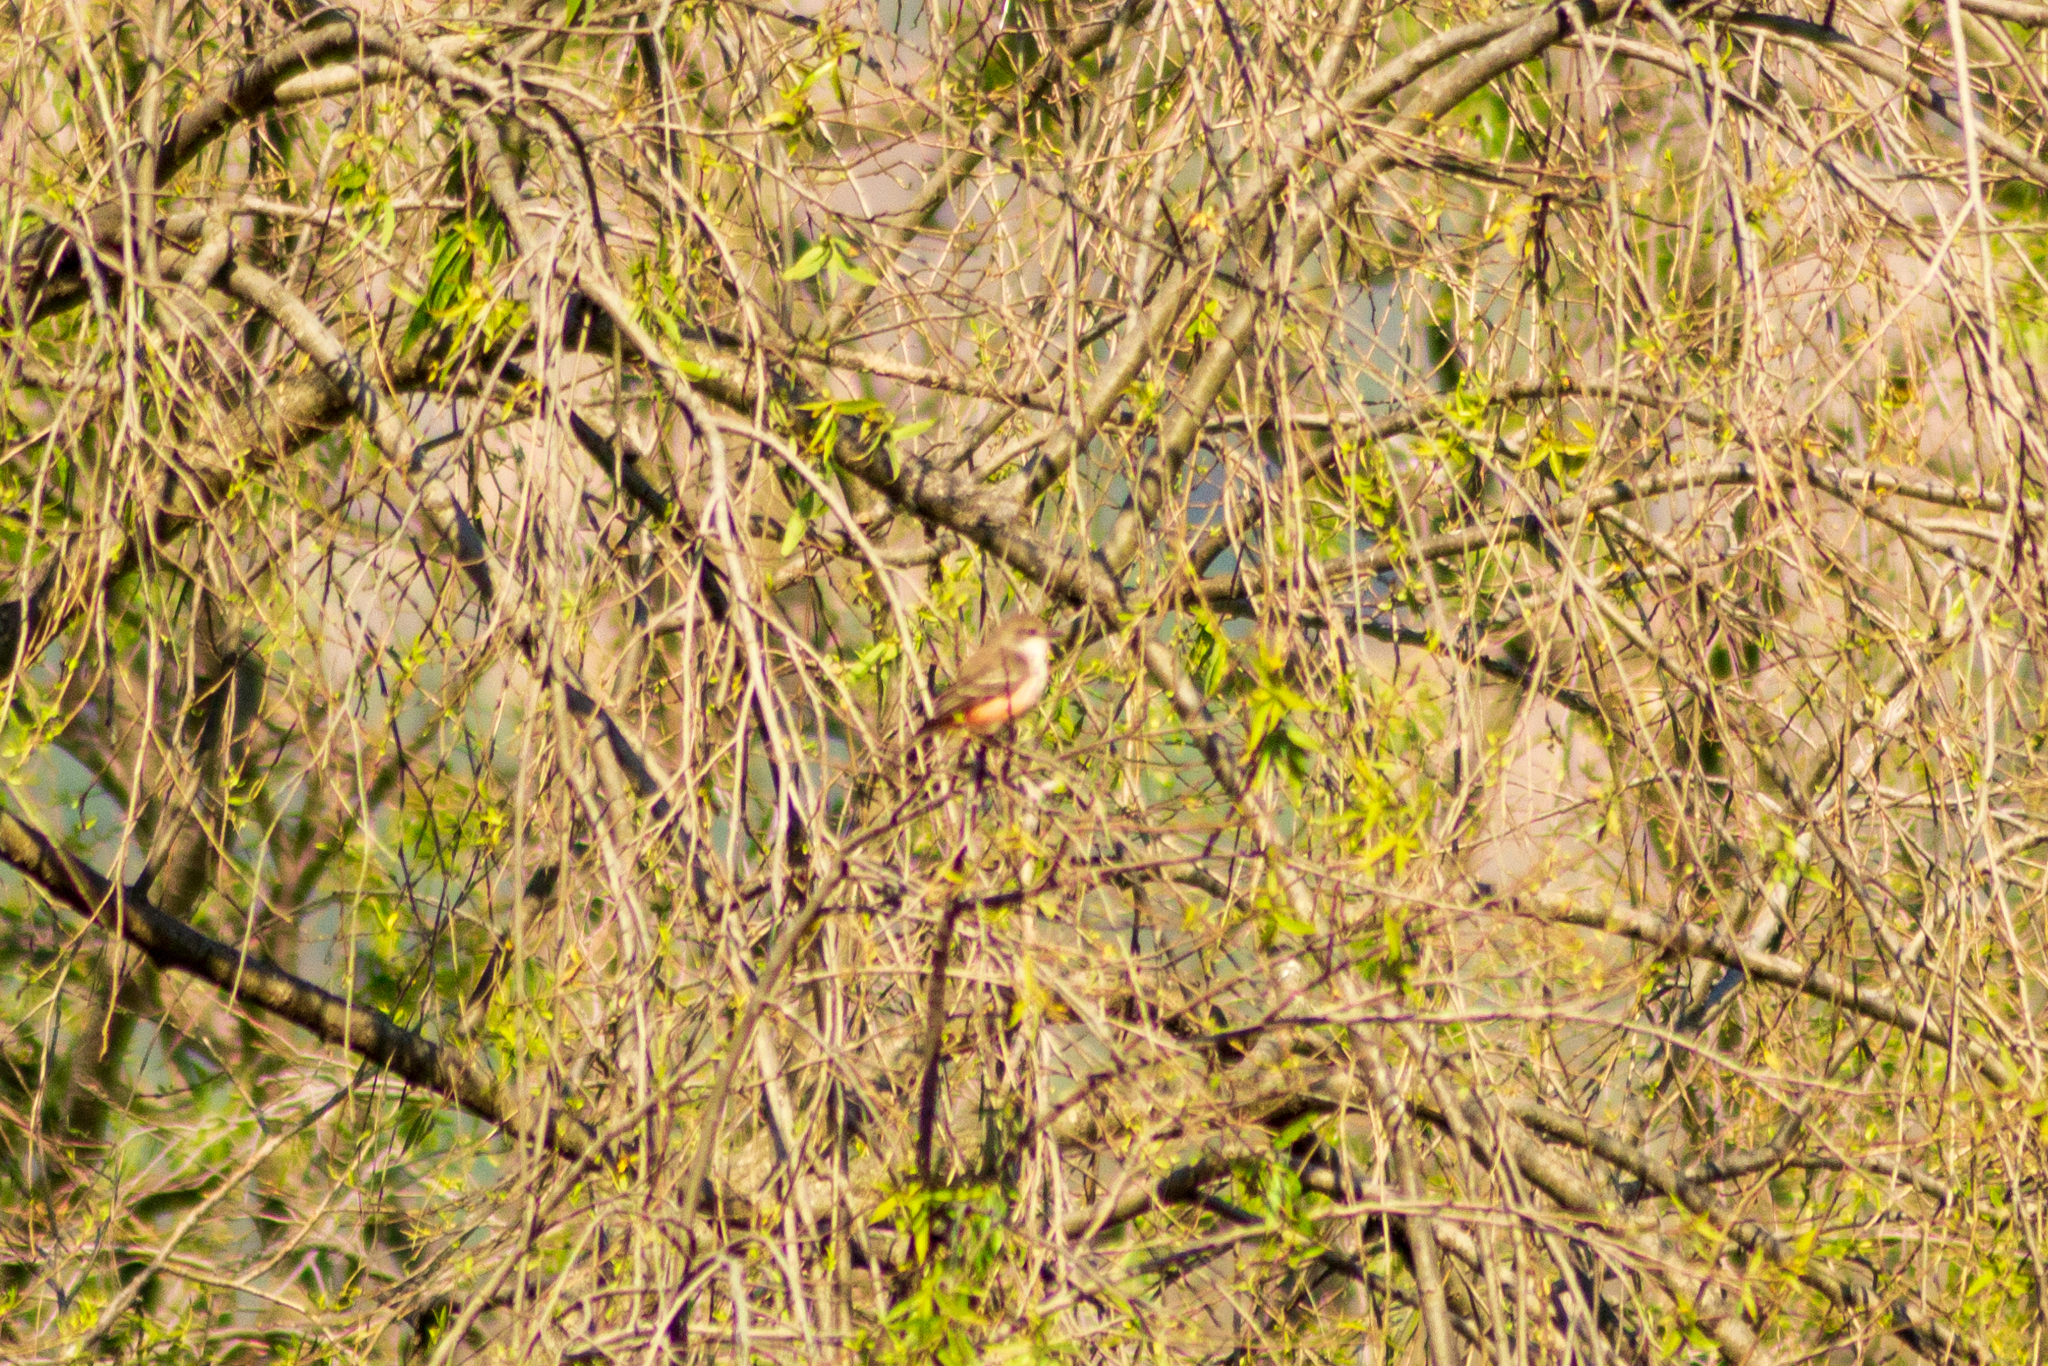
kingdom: Animalia
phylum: Chordata
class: Aves
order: Passeriformes
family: Tyrannidae
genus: Pyrocephalus
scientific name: Pyrocephalus rubinus
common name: Vermilion flycatcher
